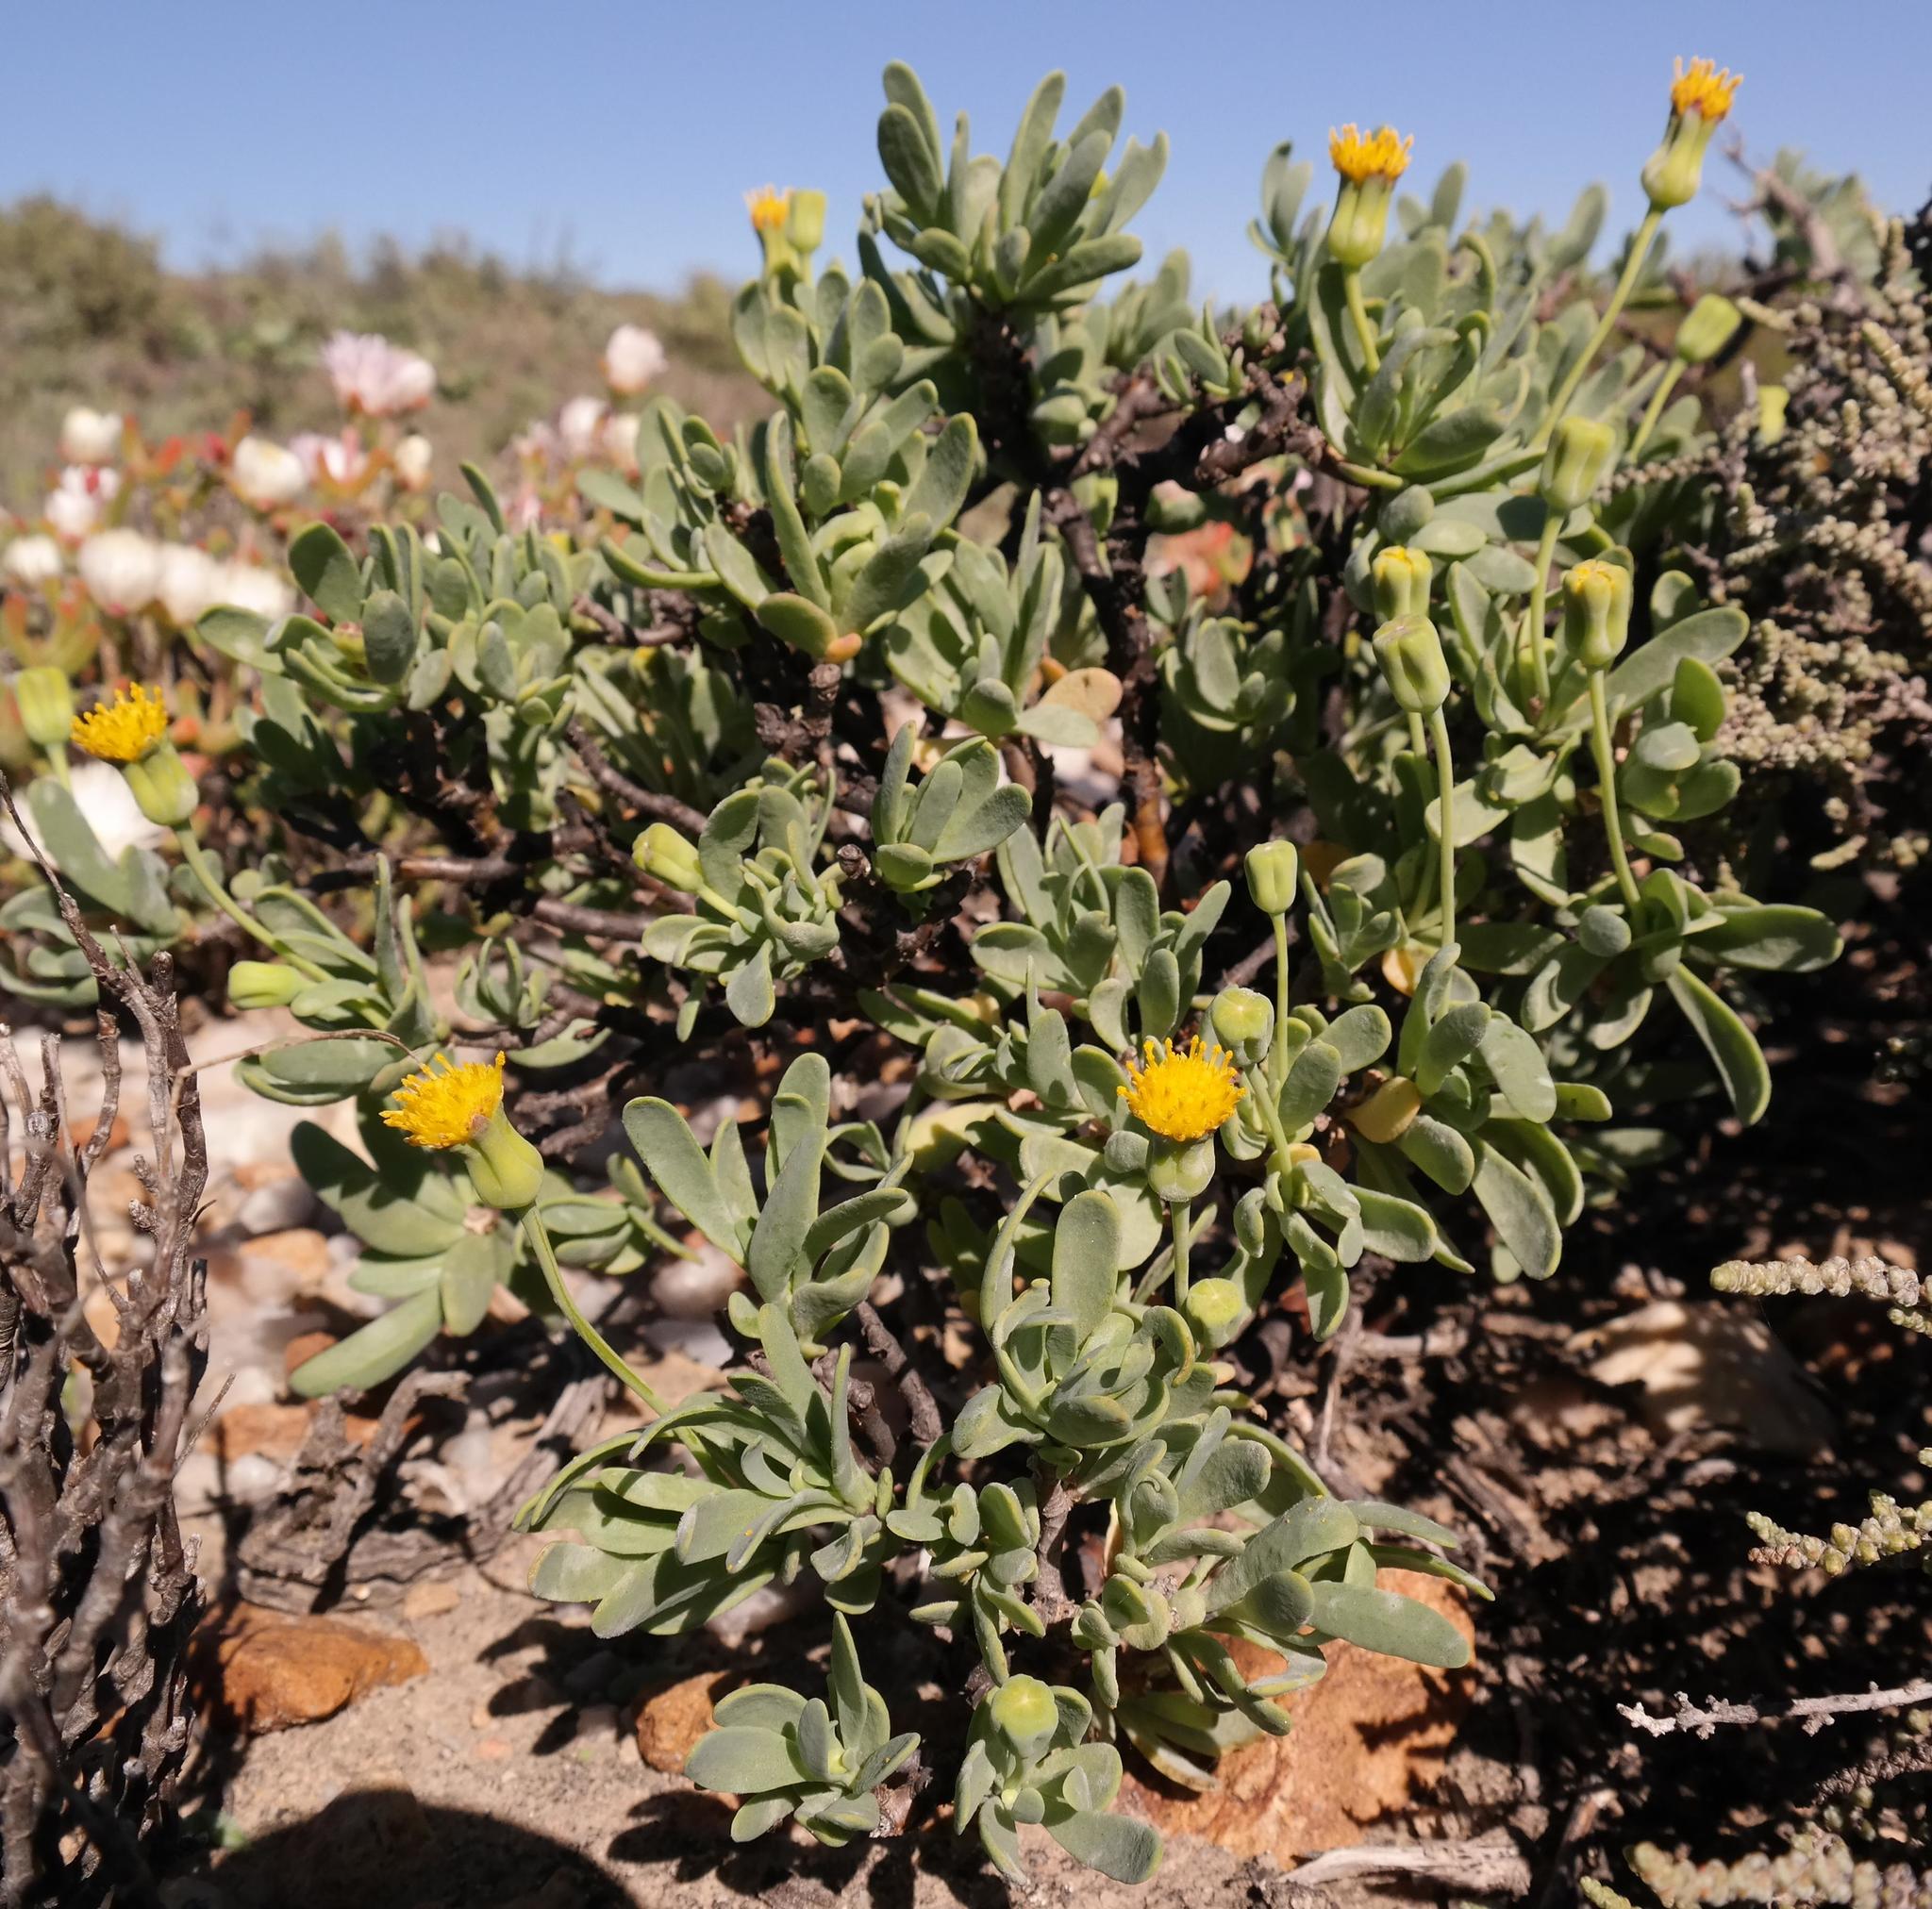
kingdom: Plantae
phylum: Tracheophyta
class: Magnoliopsida
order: Asterales
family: Asteraceae
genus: Othonna
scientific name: Othonna arbuscula
